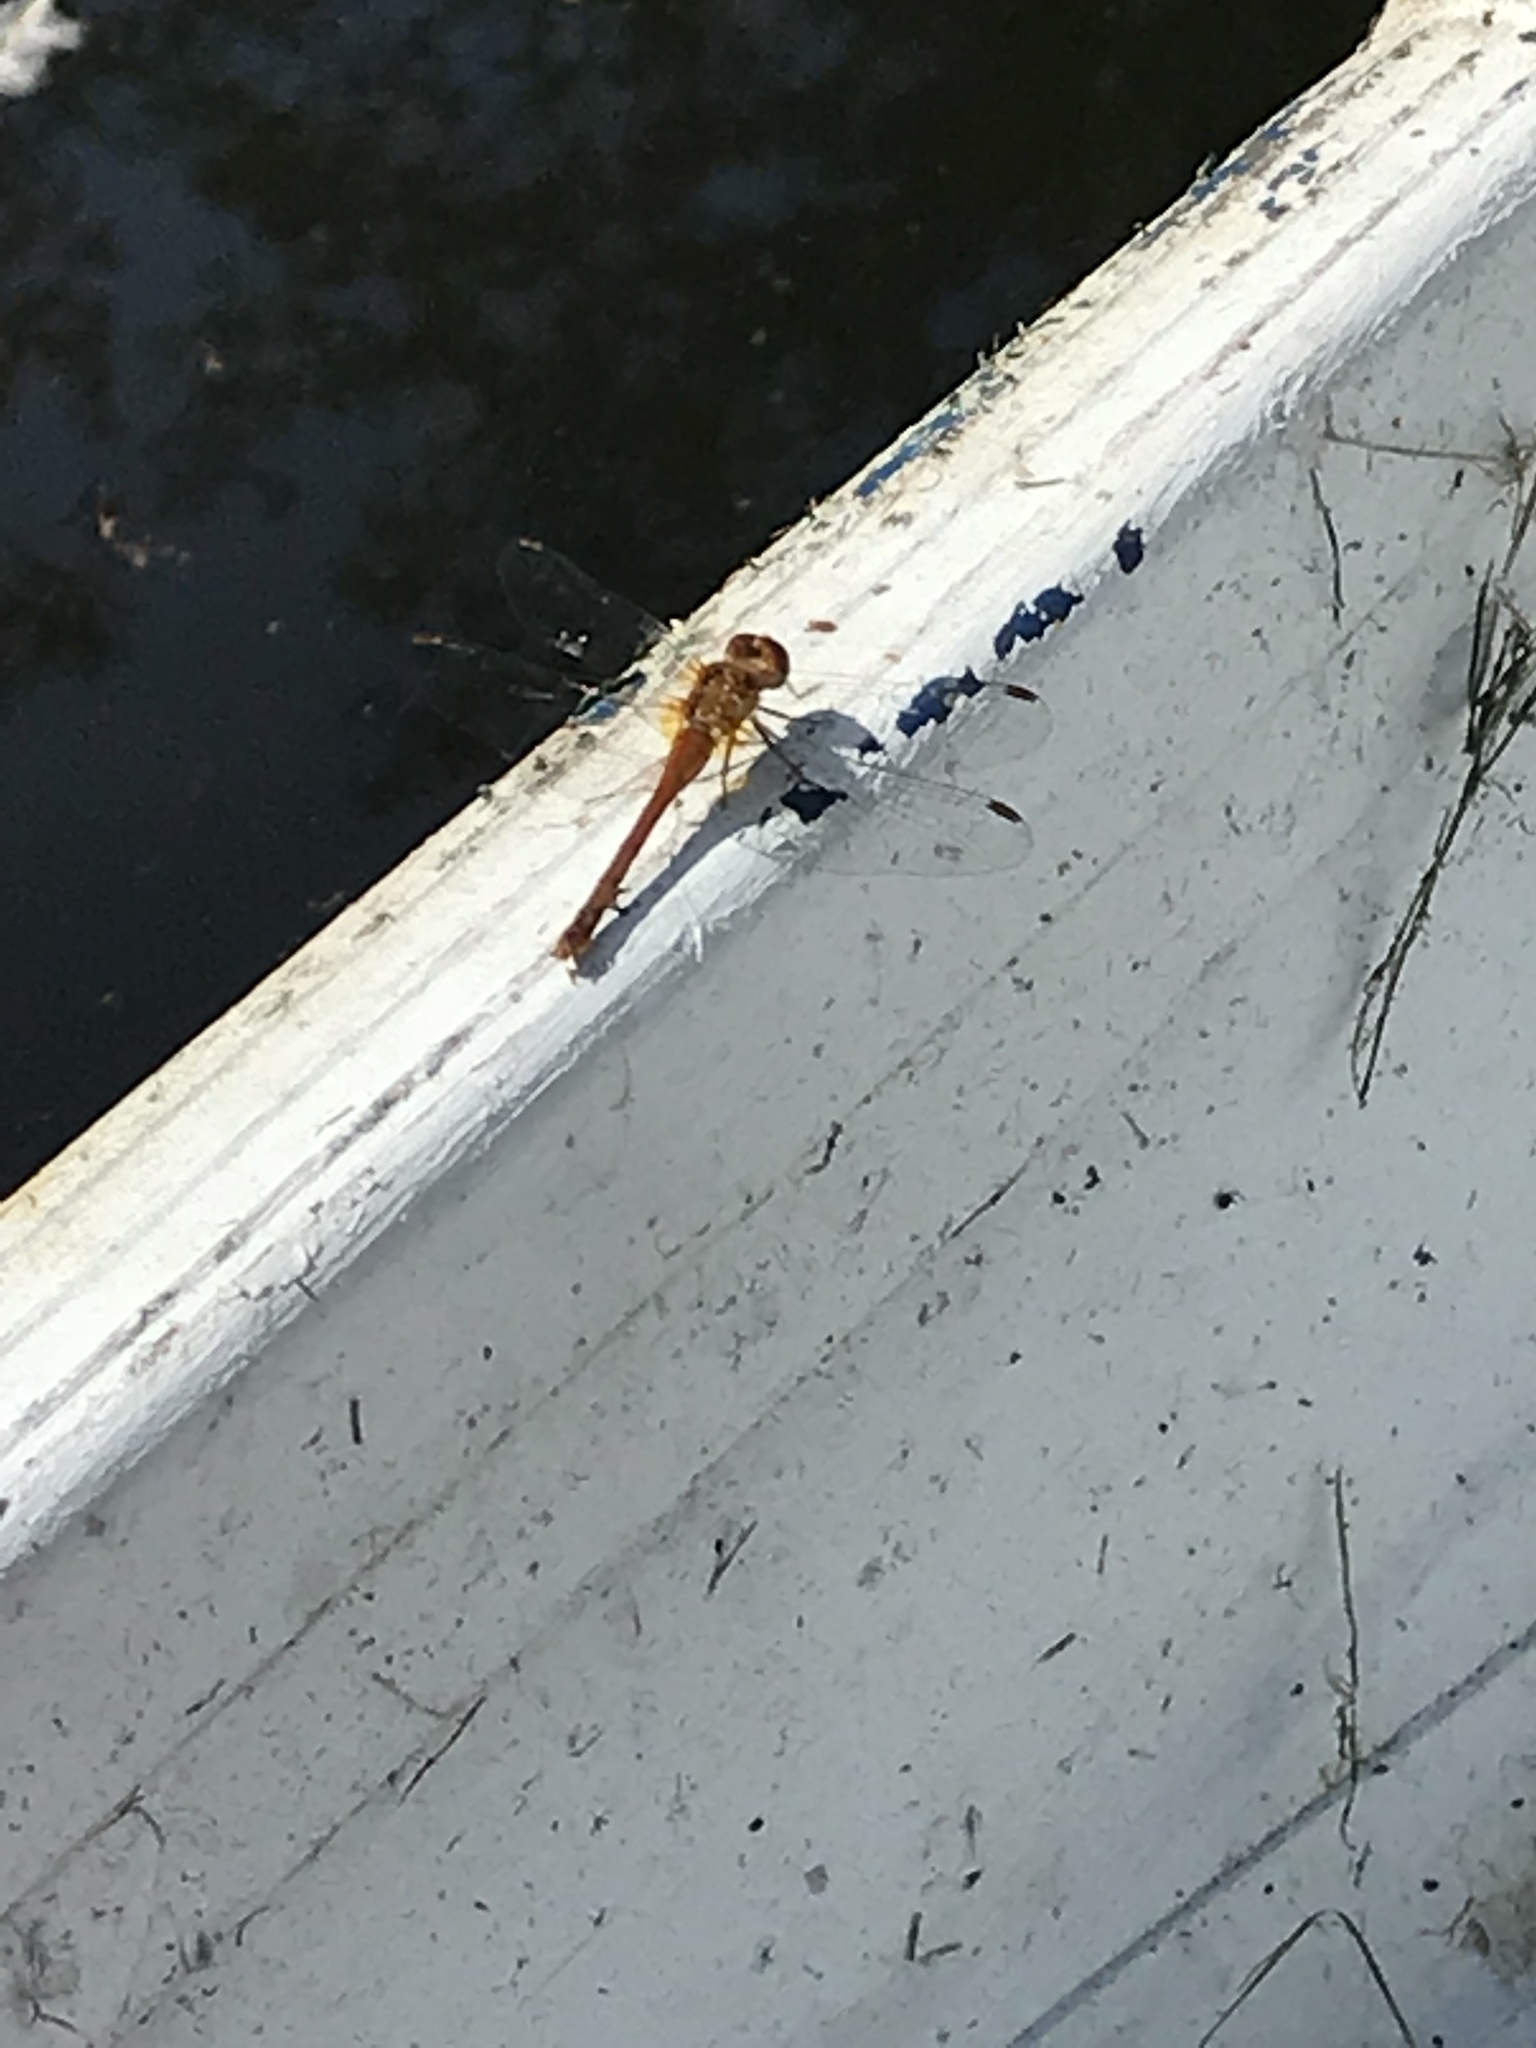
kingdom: Animalia
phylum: Arthropoda
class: Insecta
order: Odonata
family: Libellulidae
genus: Sympetrum
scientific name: Sympetrum vicinum
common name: Autumn meadowhawk
